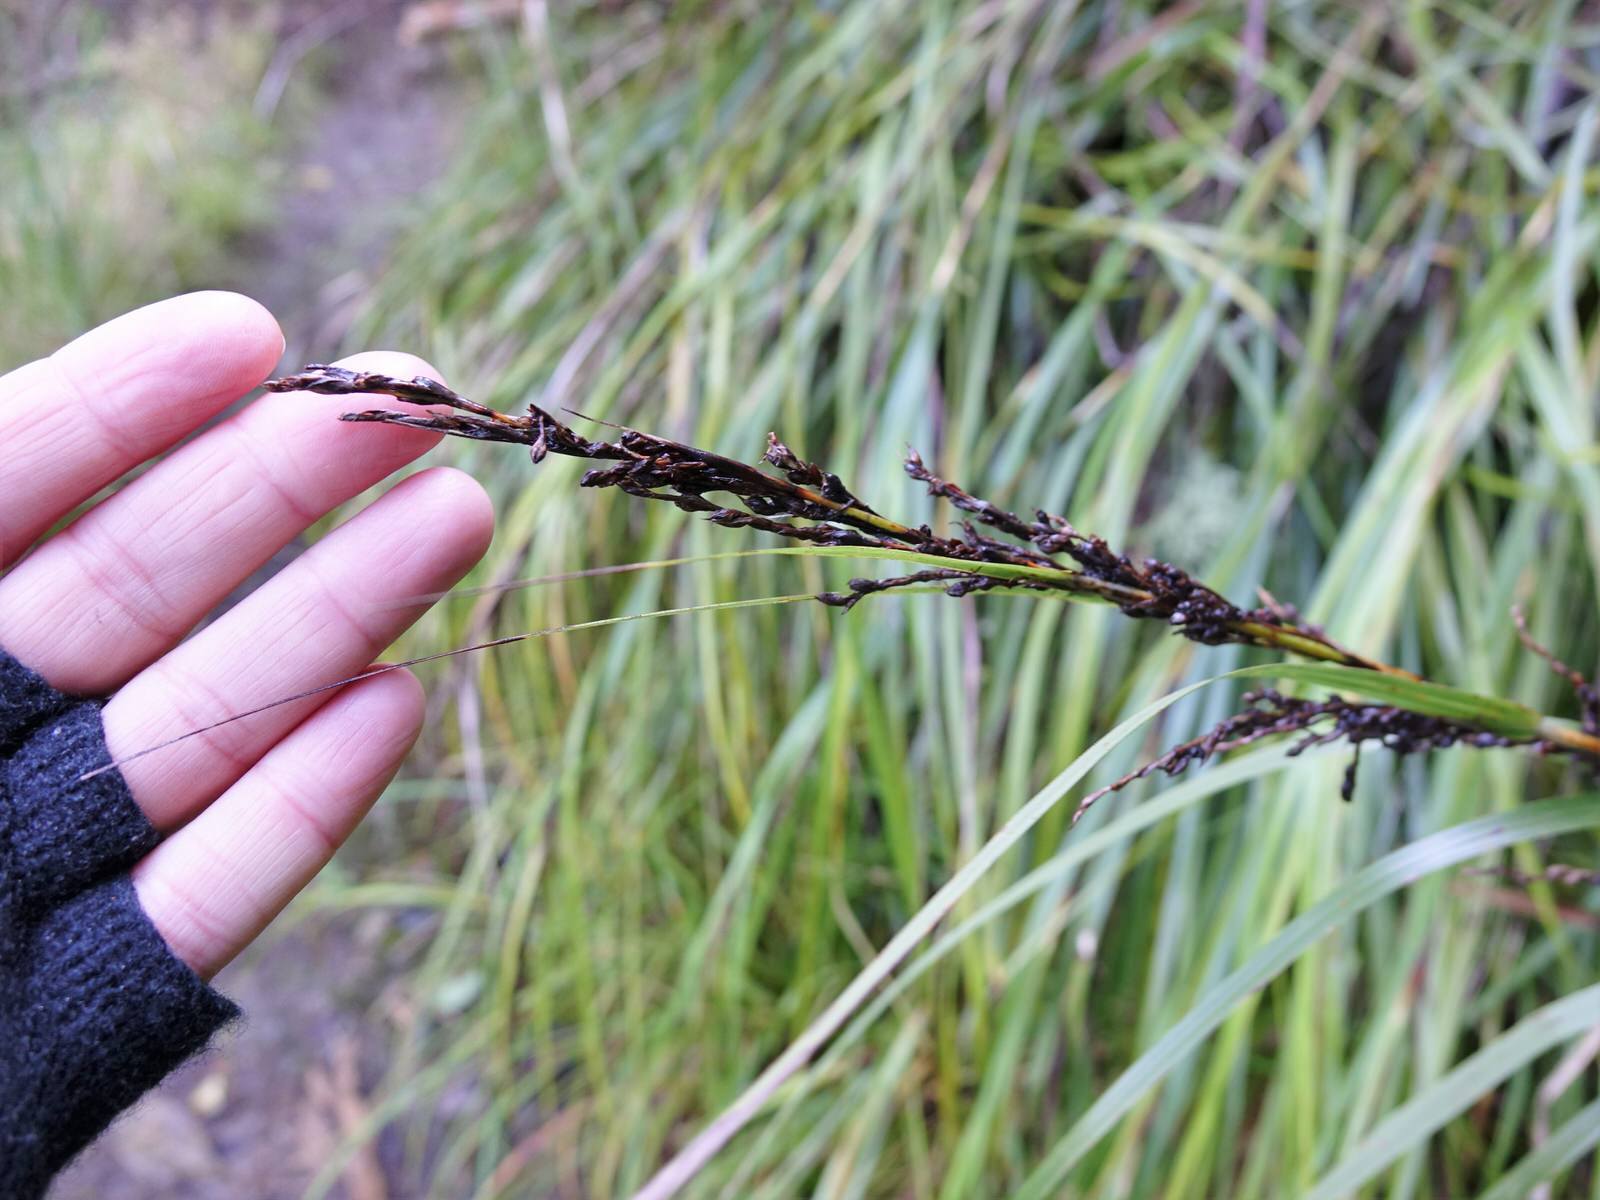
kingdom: Plantae
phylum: Tracheophyta
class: Liliopsida
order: Poales
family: Cyperaceae
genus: Gahnia
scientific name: Gahnia lacera
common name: Sawsedge
